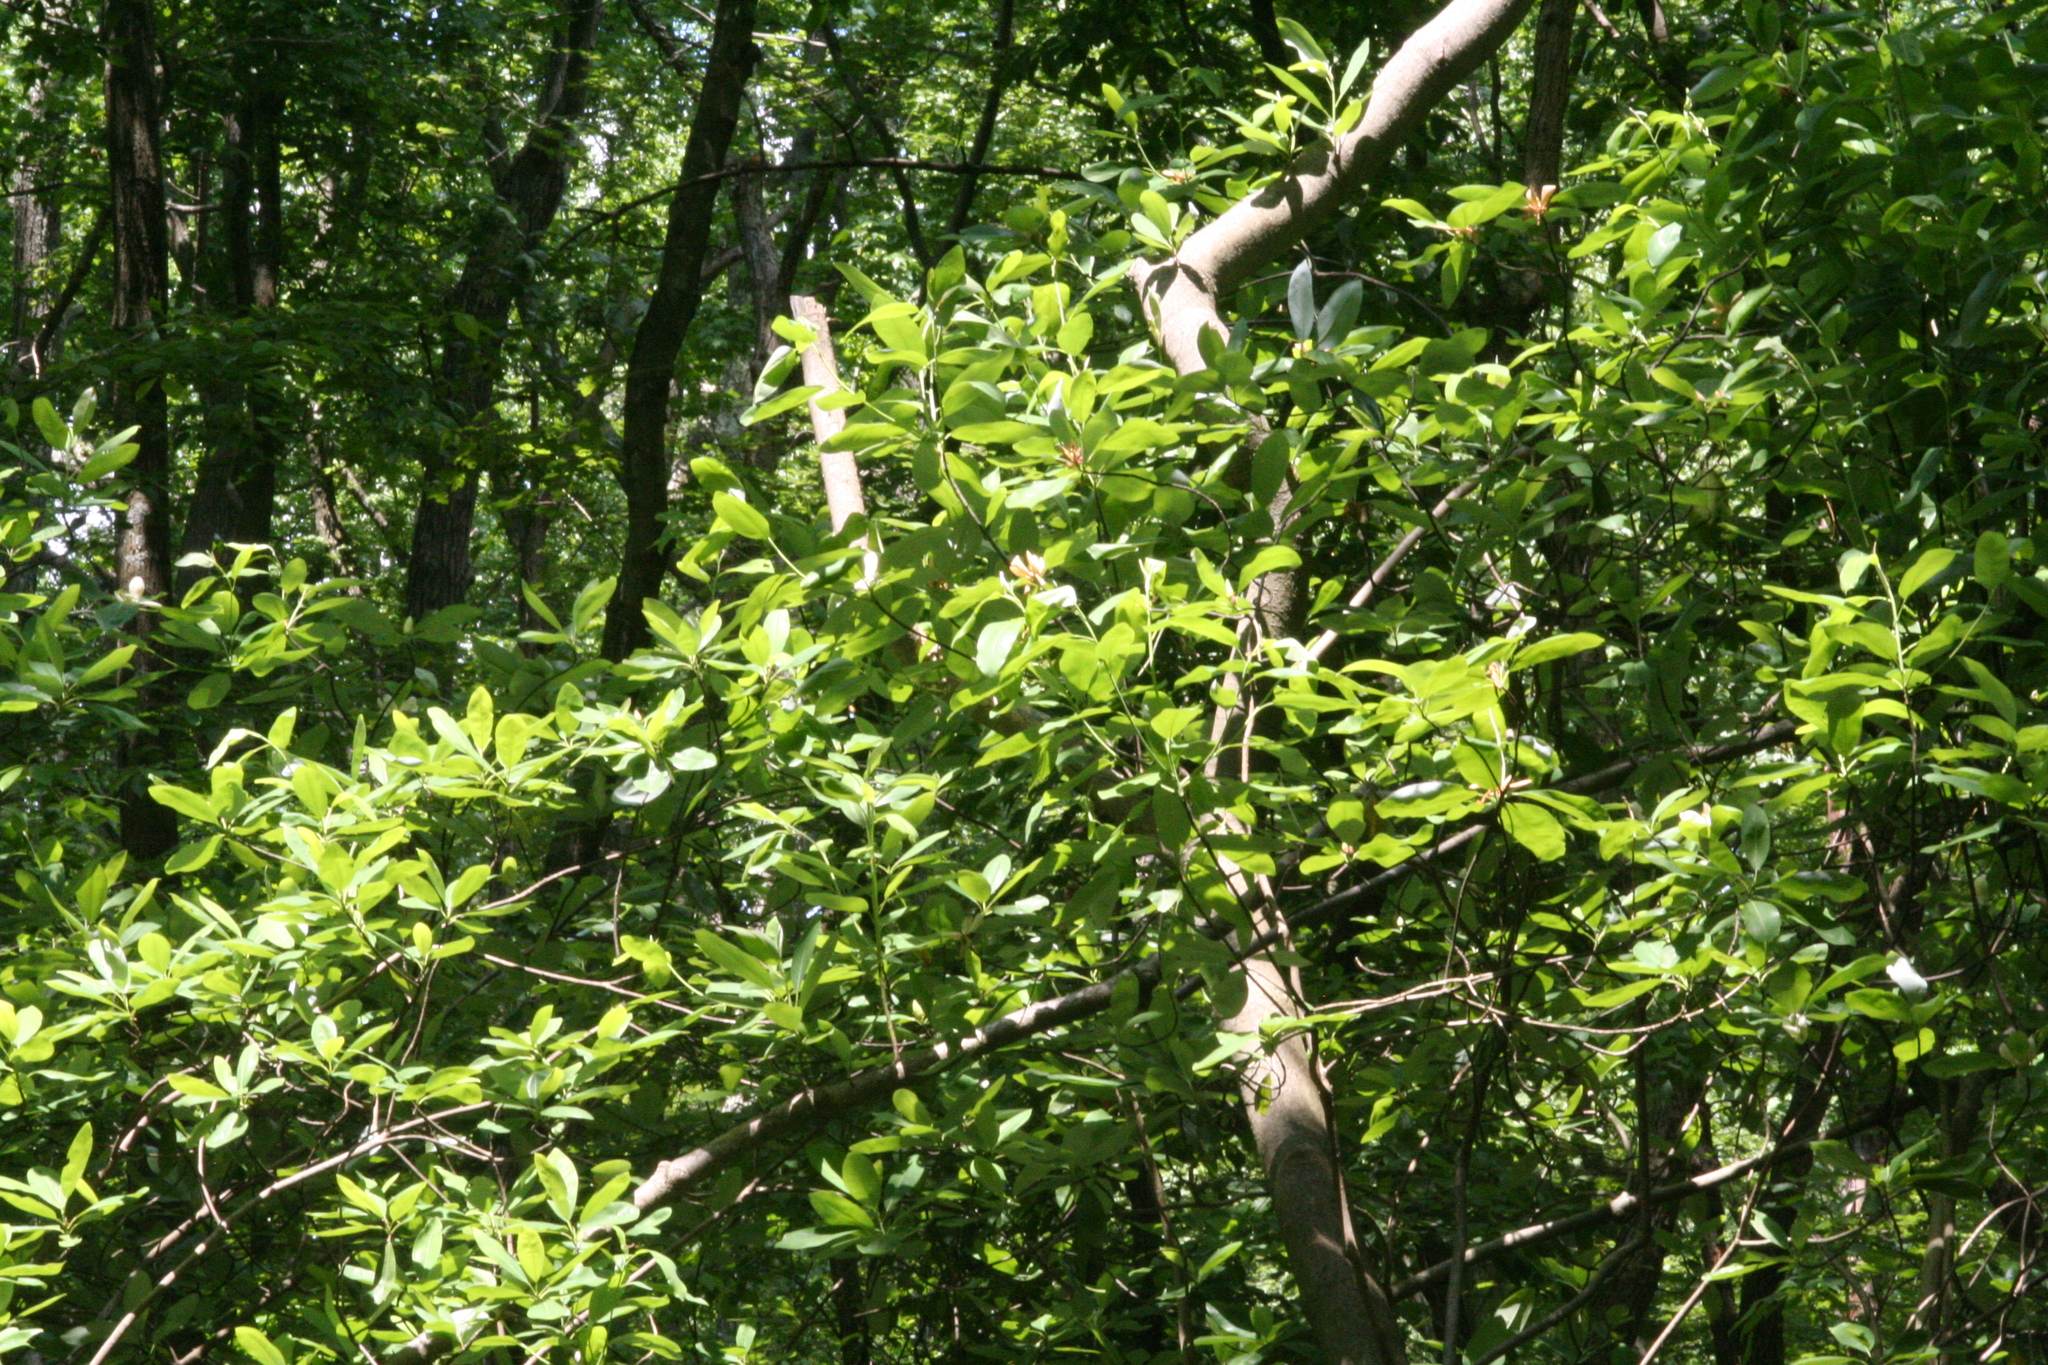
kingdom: Plantae
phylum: Tracheophyta
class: Magnoliopsida
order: Magnoliales
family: Magnoliaceae
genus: Magnolia
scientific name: Magnolia virginiana
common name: Swamp bay
